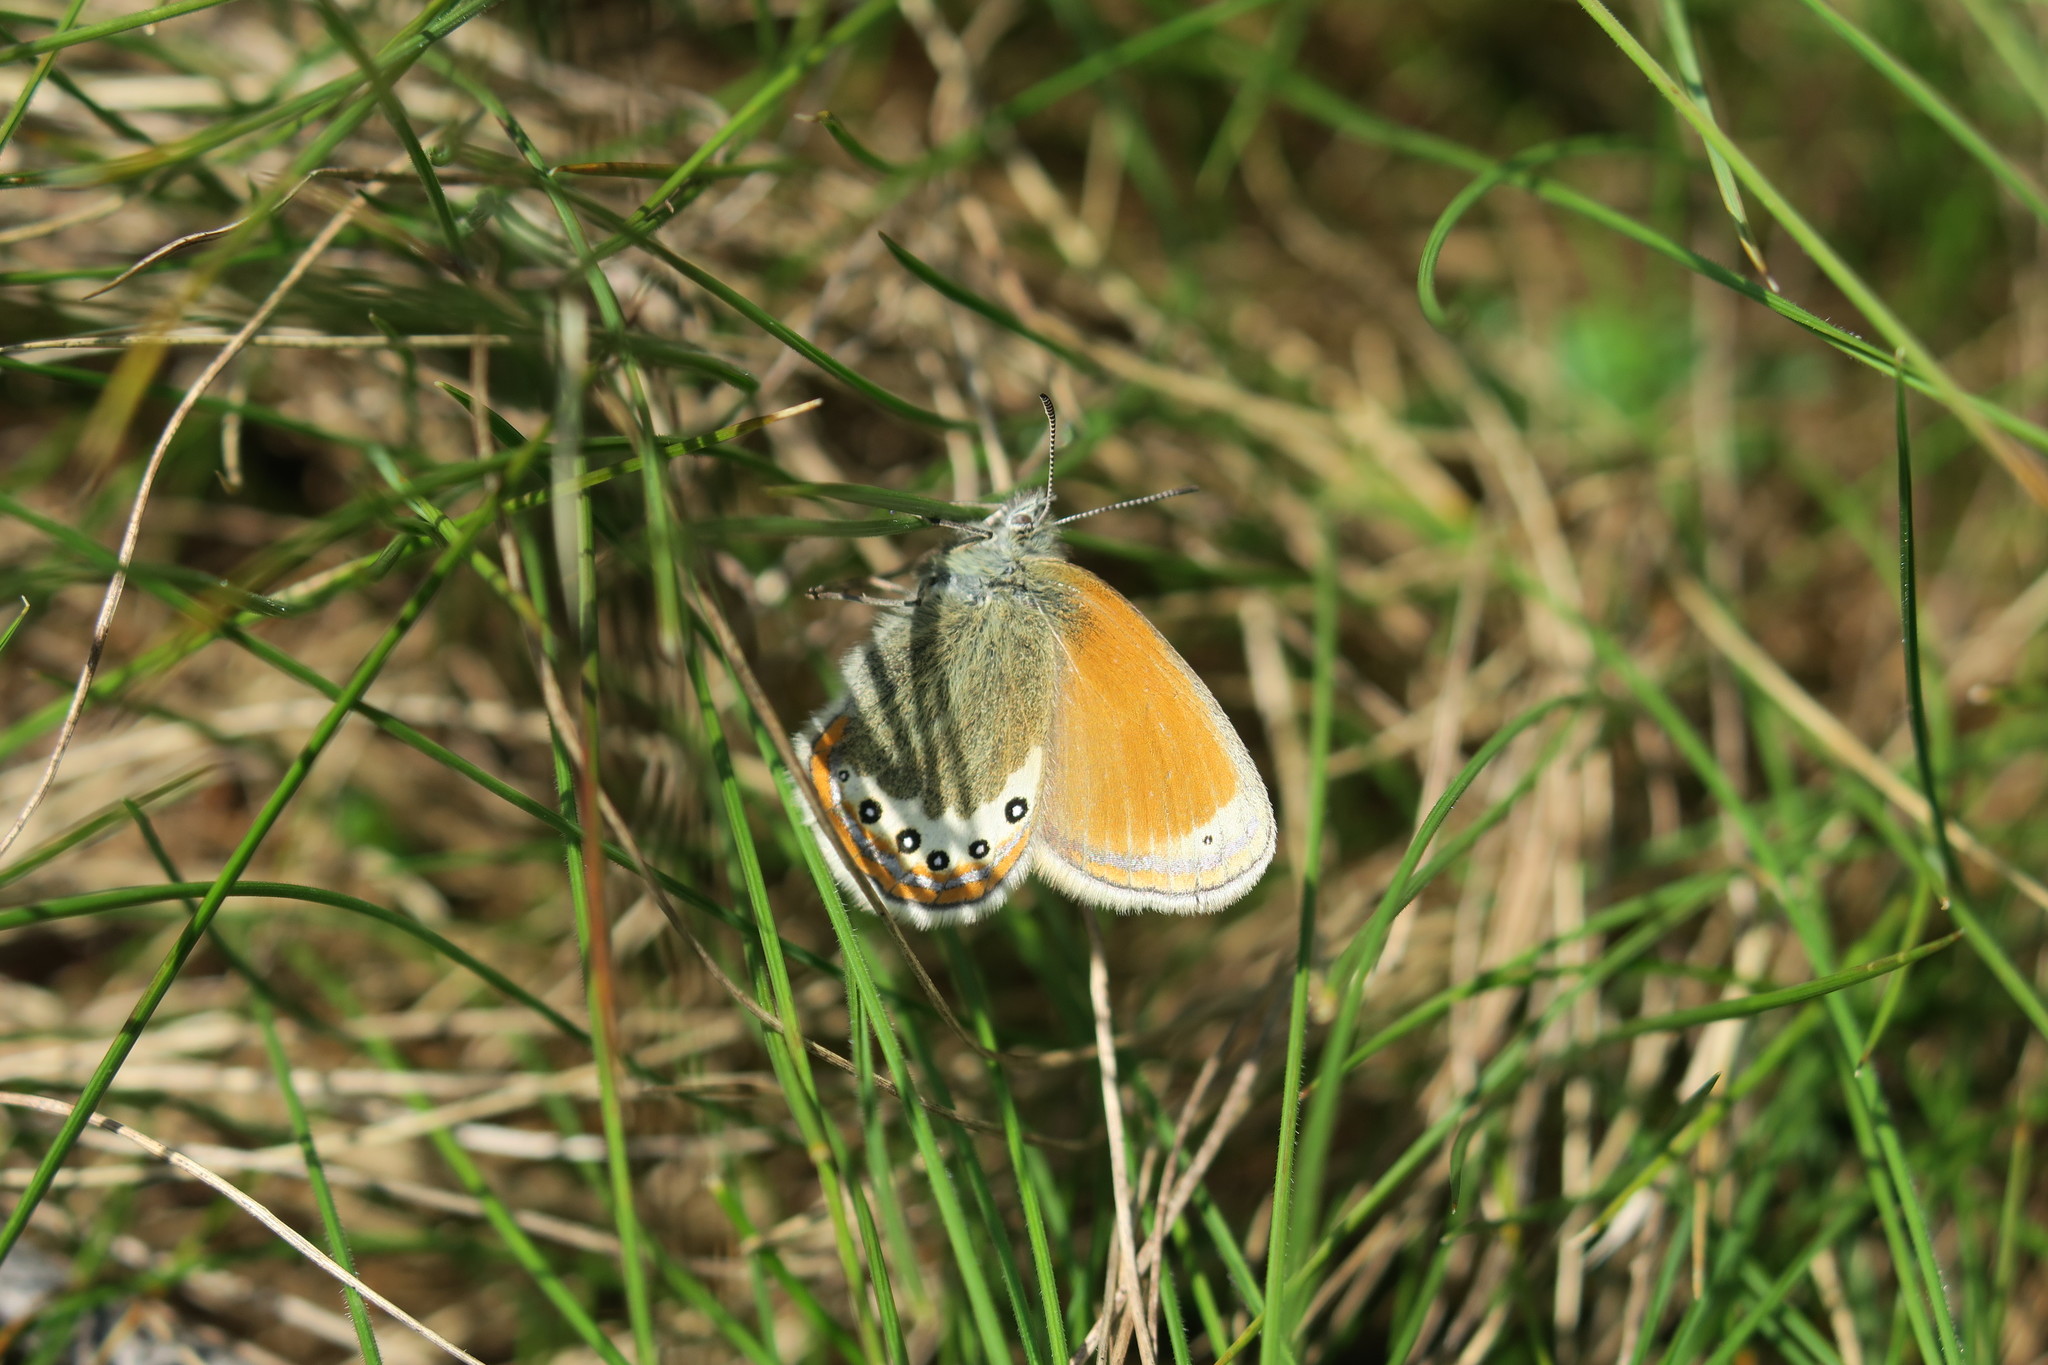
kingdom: Animalia
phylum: Arthropoda
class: Insecta
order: Lepidoptera
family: Nymphalidae
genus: Coenonympha
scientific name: Coenonympha
